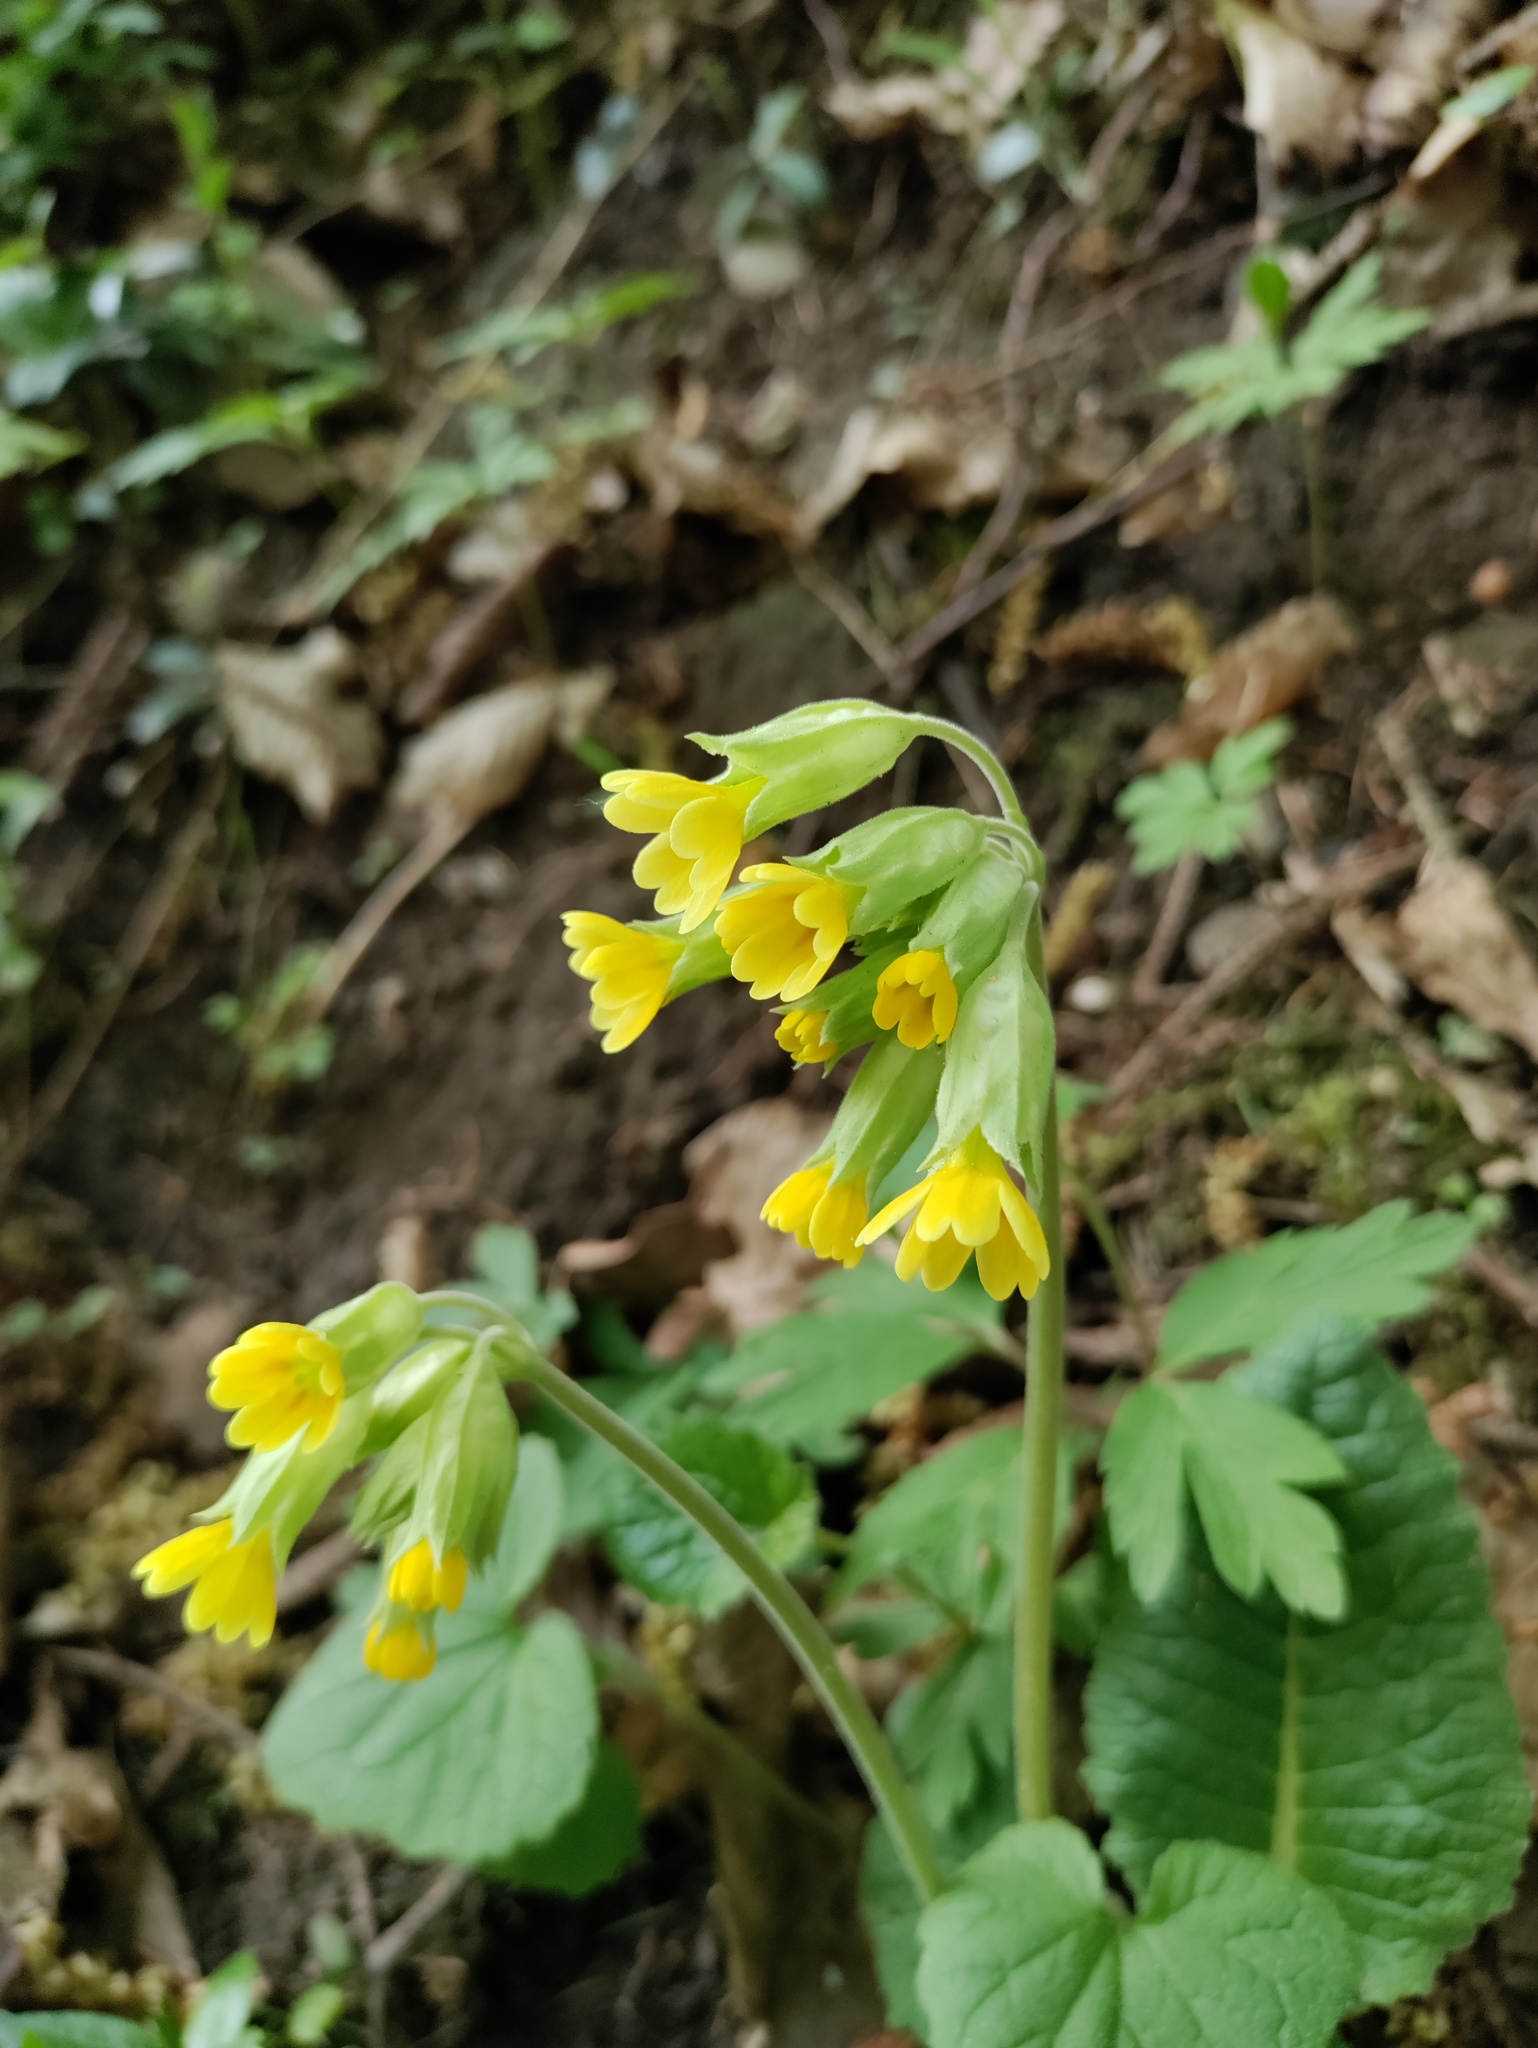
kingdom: Plantae
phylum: Tracheophyta
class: Magnoliopsida
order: Ericales
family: Primulaceae
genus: Primula
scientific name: Primula veris
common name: Cowslip
